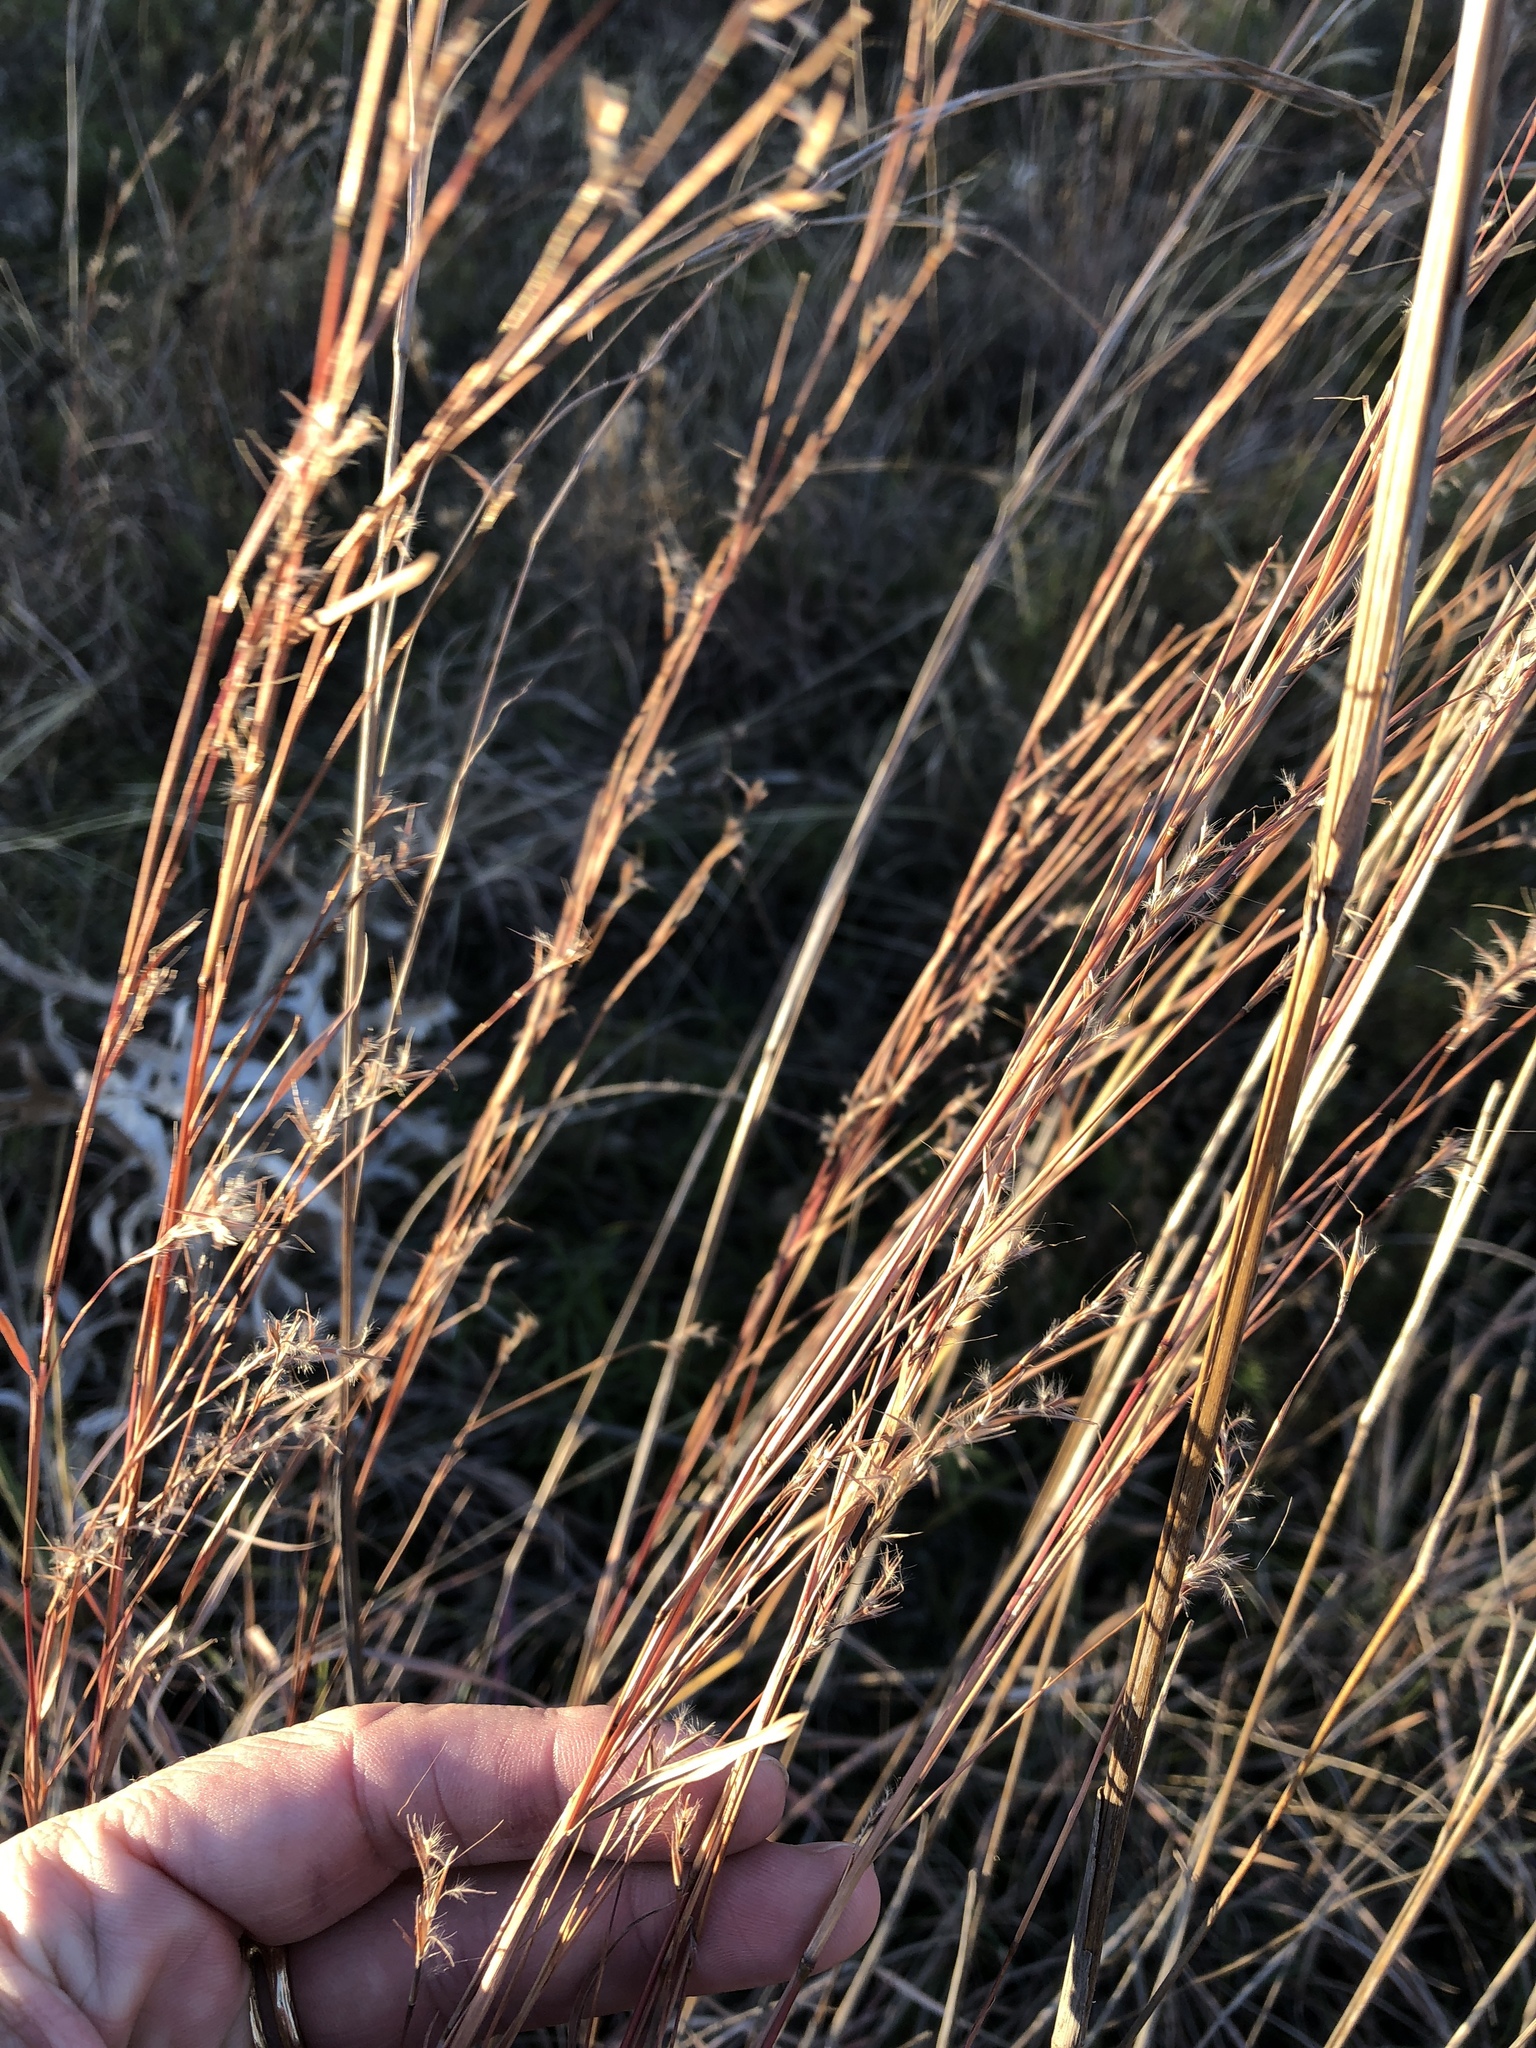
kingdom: Plantae
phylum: Tracheophyta
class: Liliopsida
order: Poales
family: Poaceae
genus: Schizachyrium
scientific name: Schizachyrium scoparium
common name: Little bluestem
